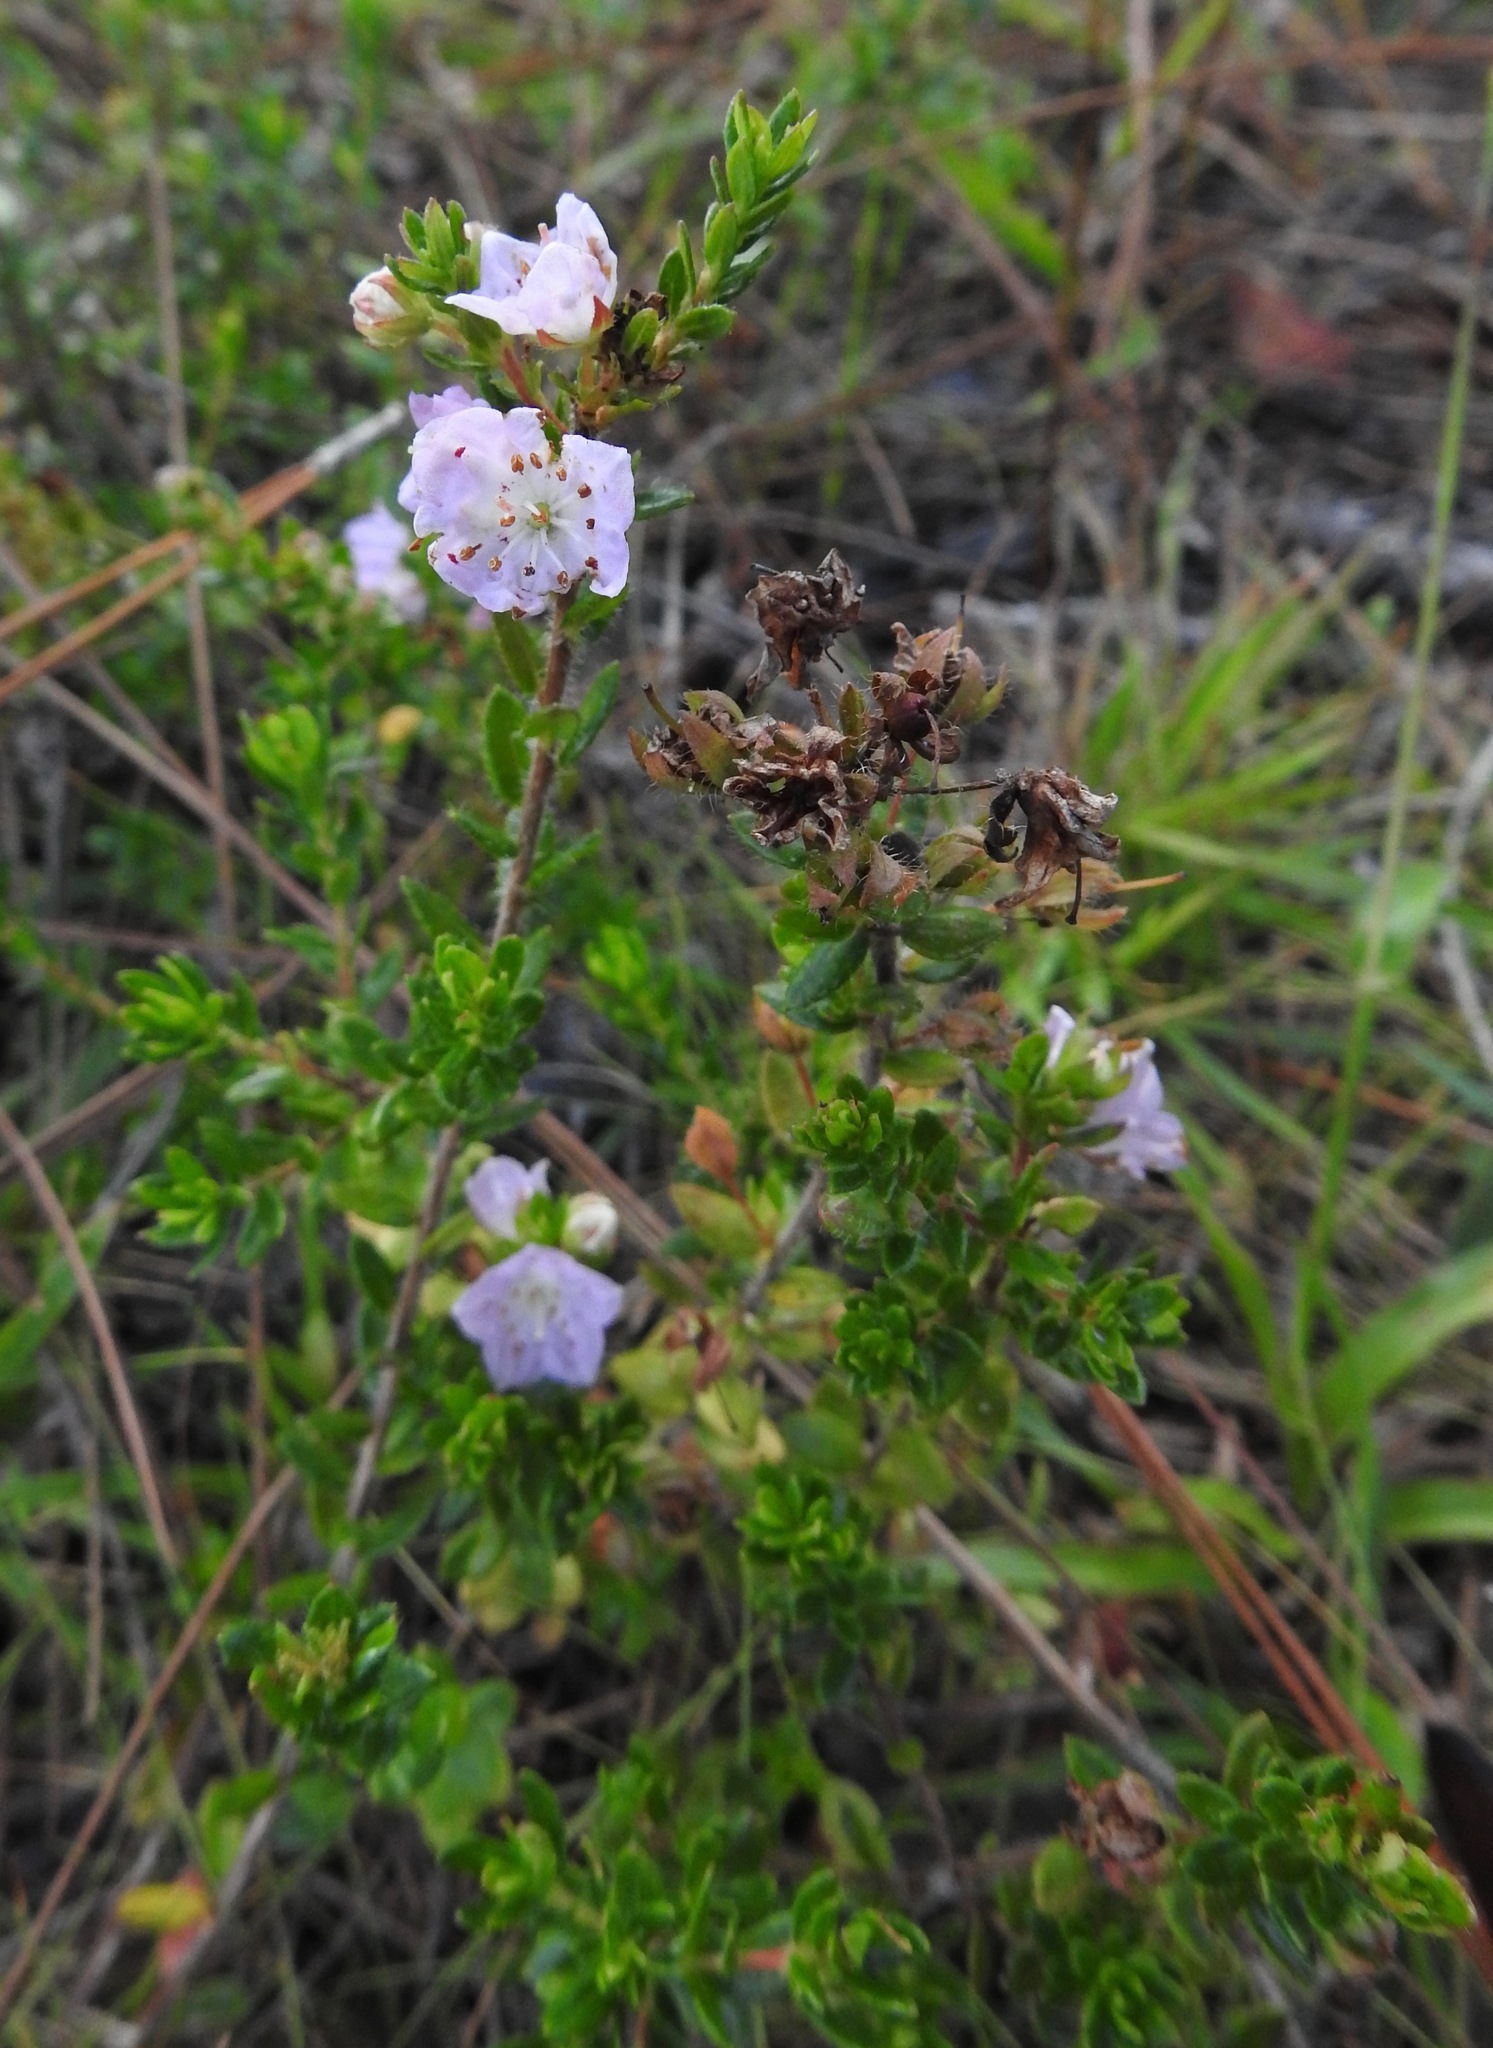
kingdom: Plantae
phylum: Tracheophyta
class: Magnoliopsida
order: Ericales
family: Ericaceae
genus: Kalmia
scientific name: Kalmia hirsuta
